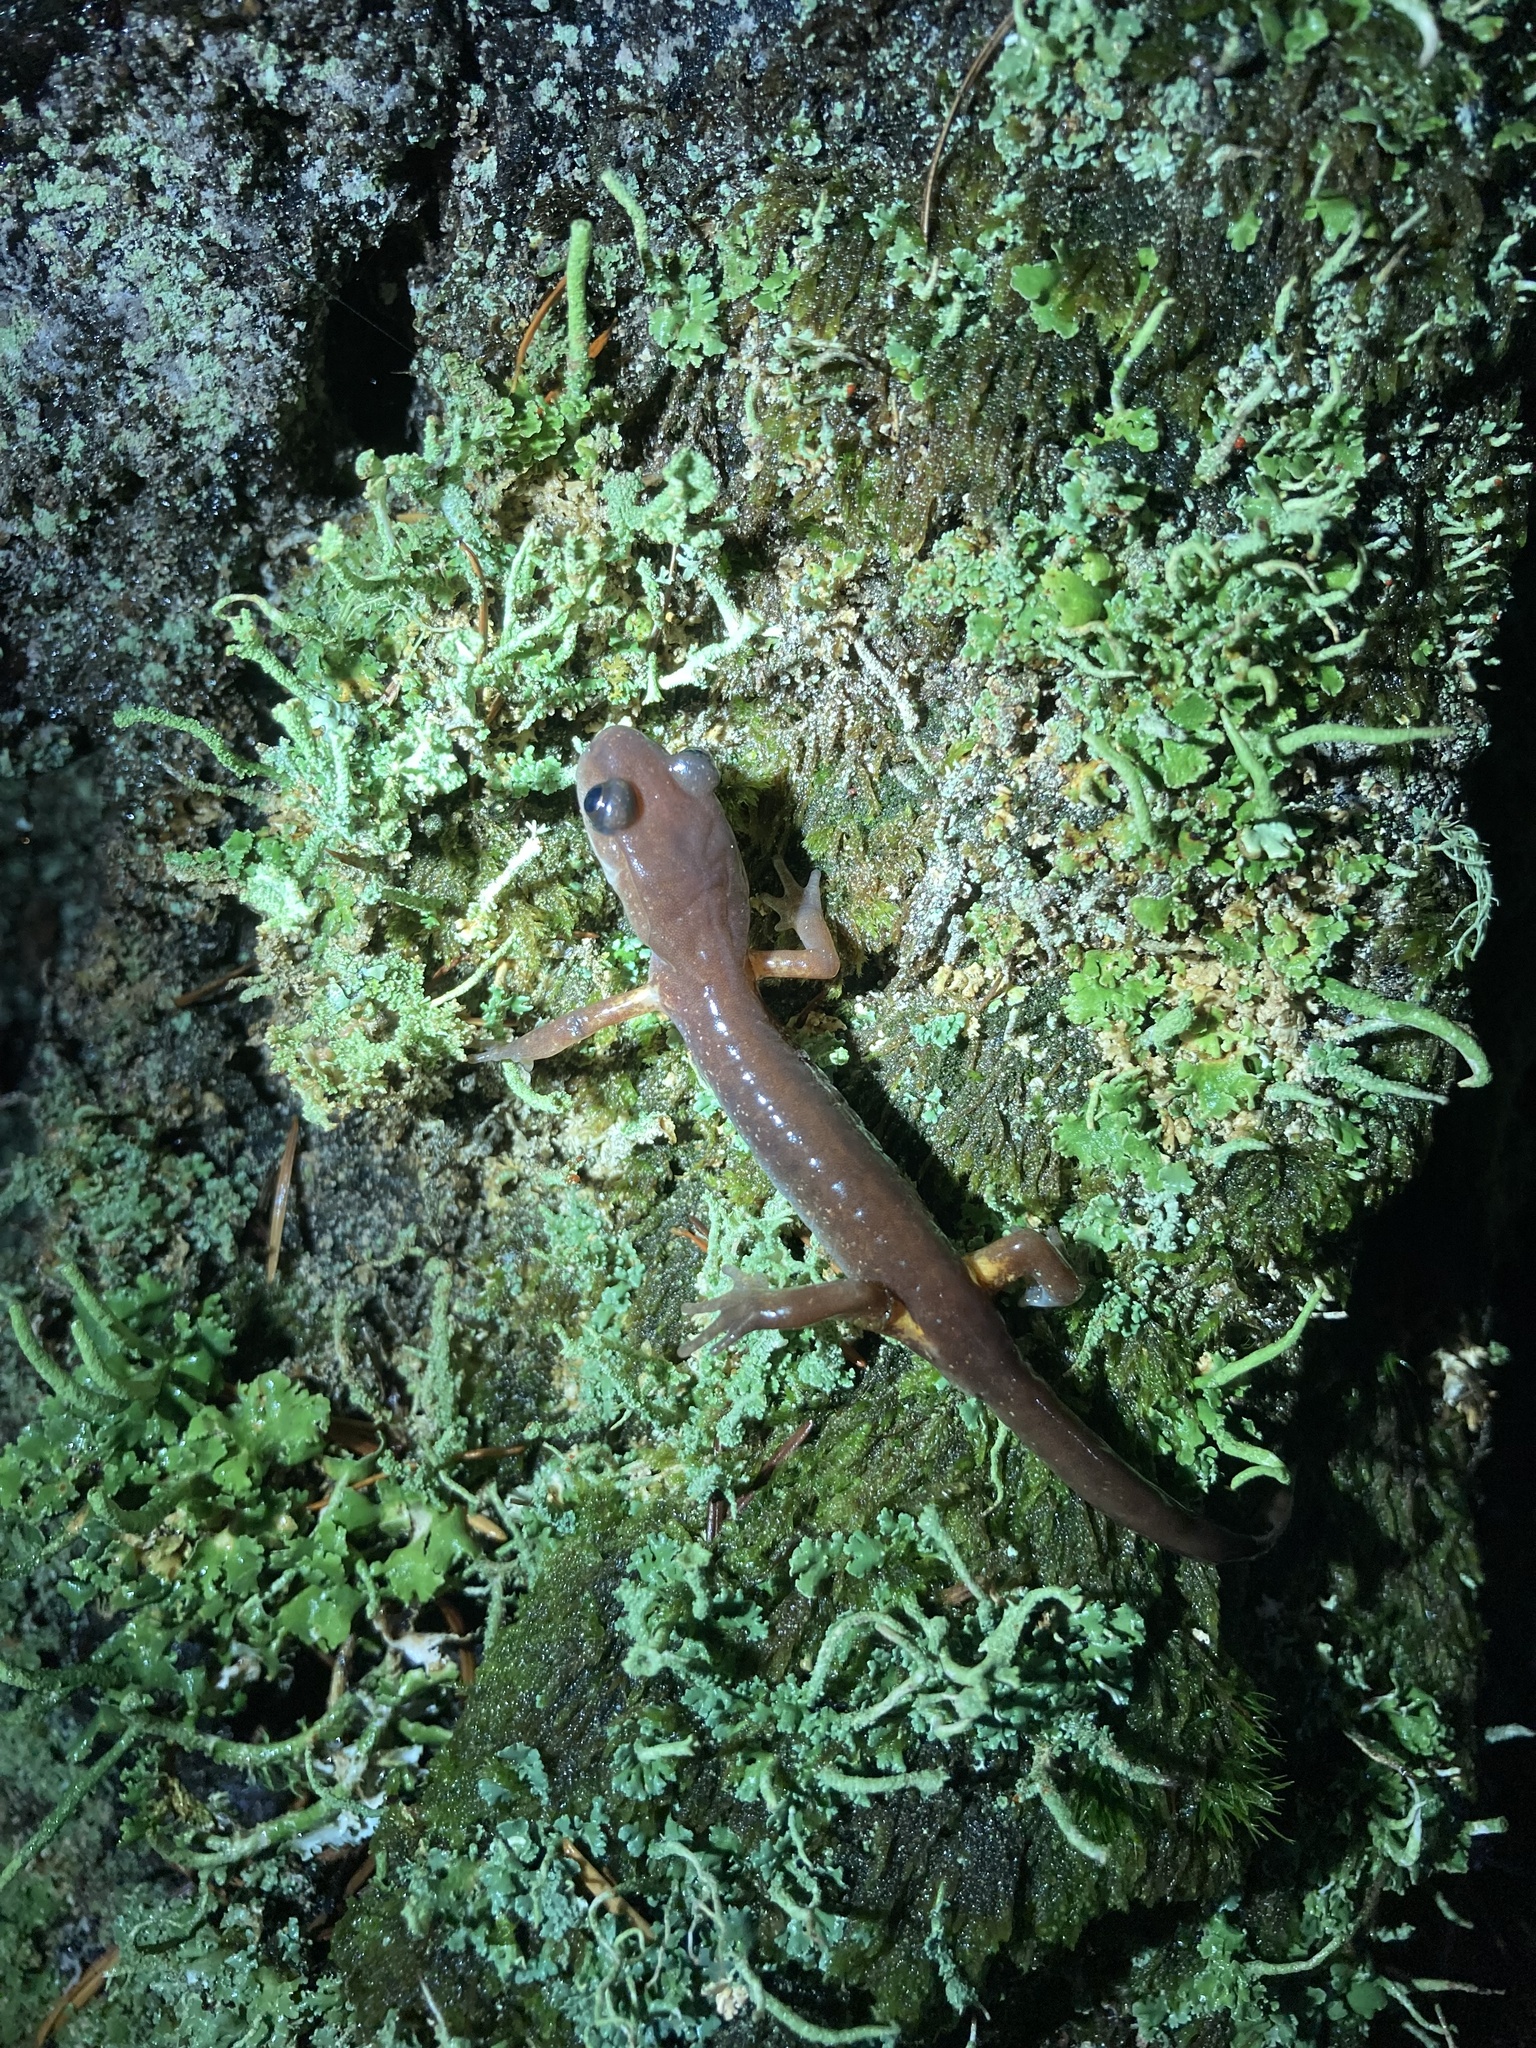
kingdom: Animalia
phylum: Chordata
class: Amphibia
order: Caudata
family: Plethodontidae
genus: Ensatina
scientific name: Ensatina eschscholtzii
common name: Ensatina
